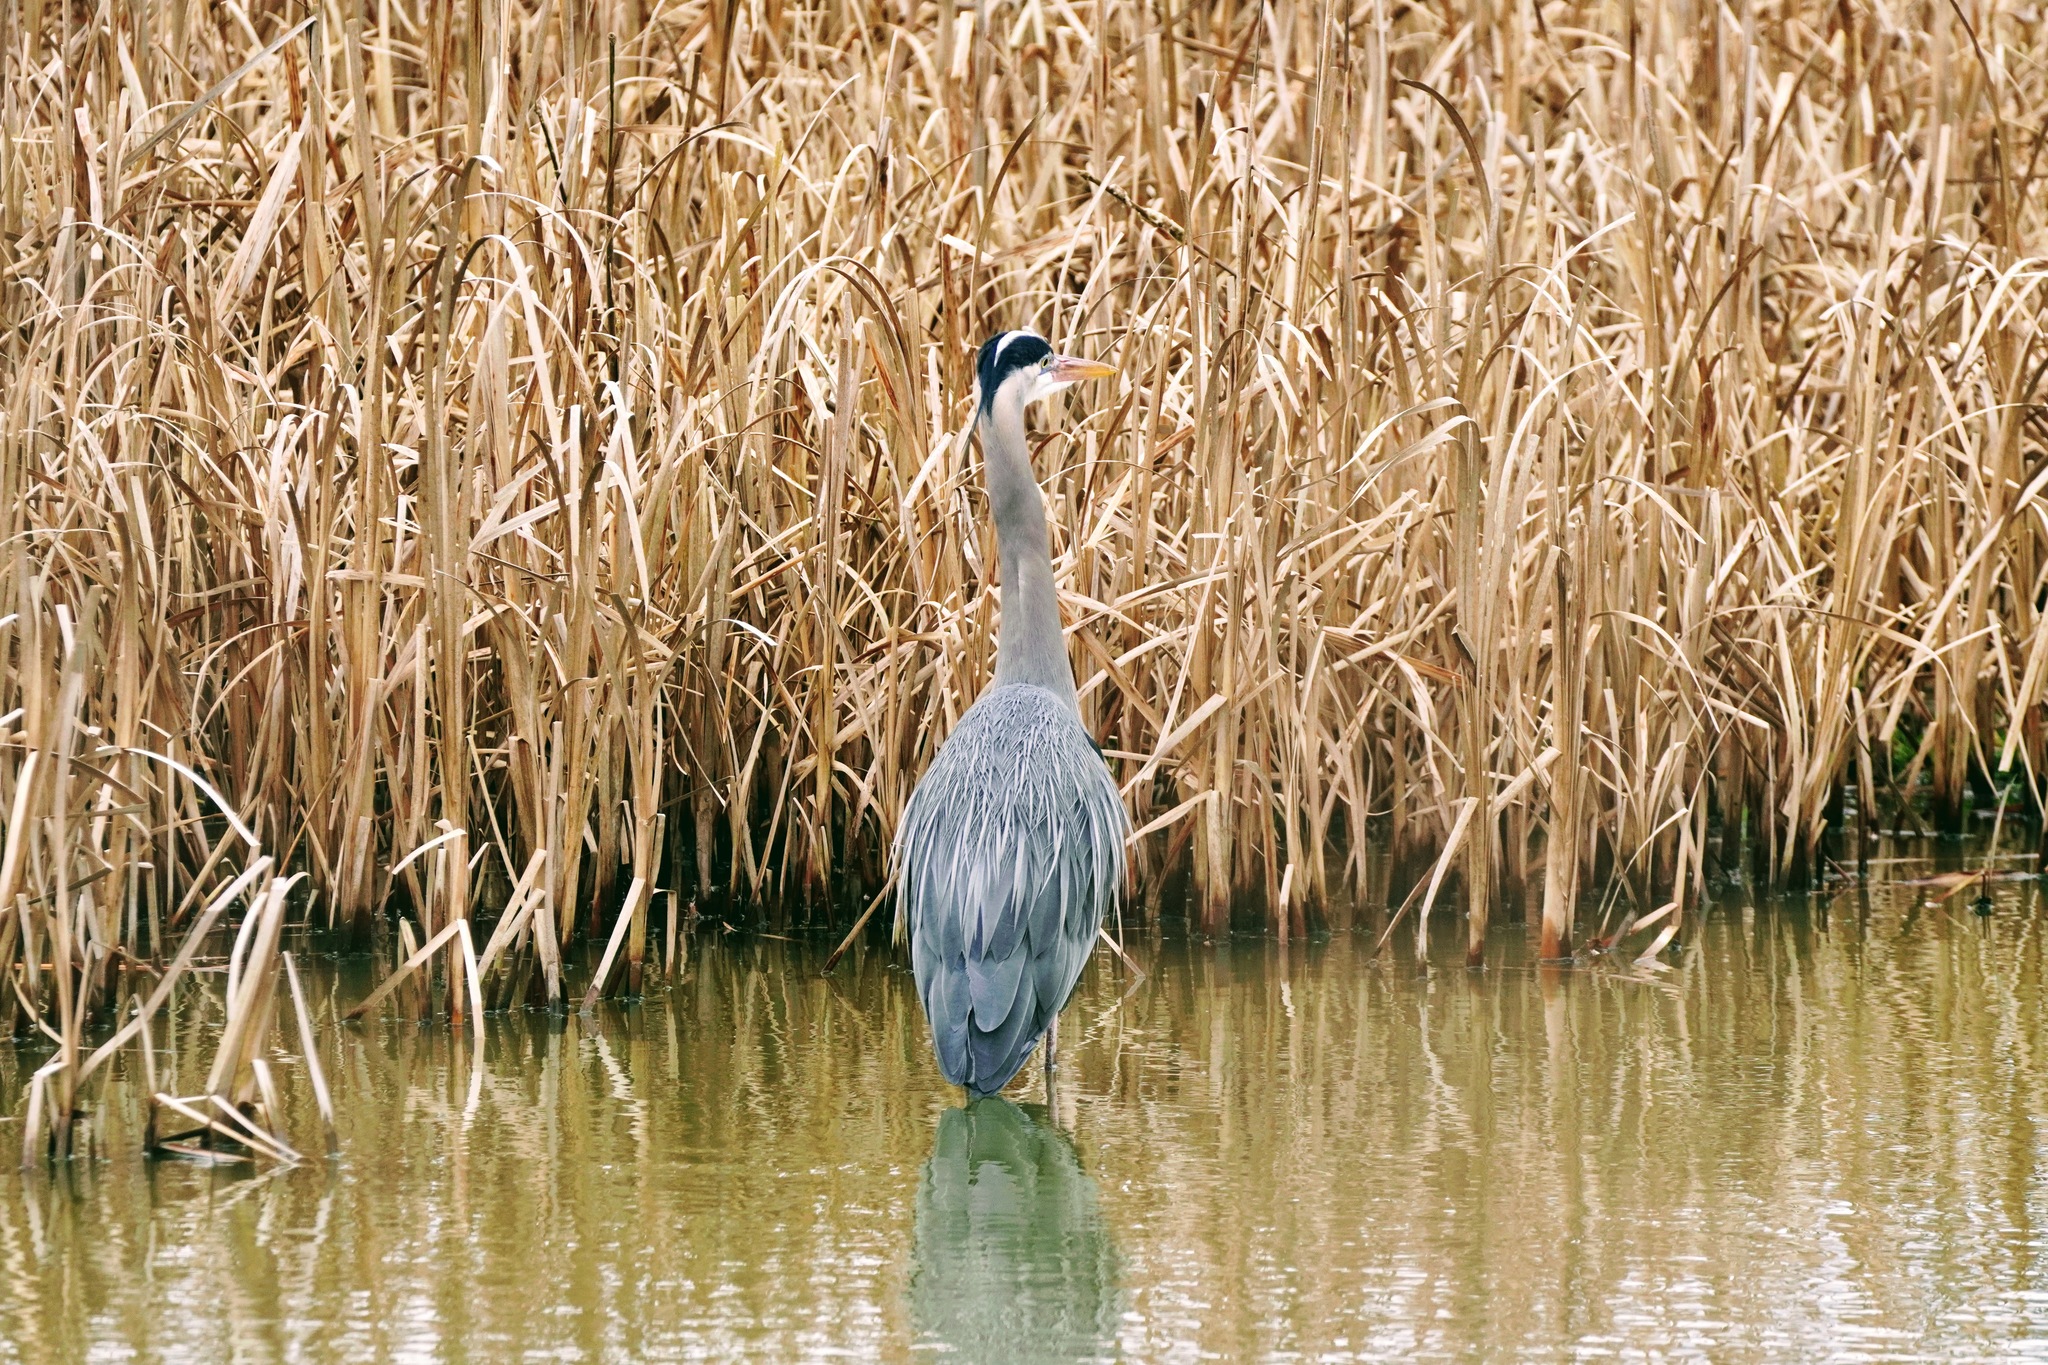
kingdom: Animalia
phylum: Chordata
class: Aves
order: Pelecaniformes
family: Ardeidae
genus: Ardea
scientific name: Ardea herodias
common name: Great blue heron
